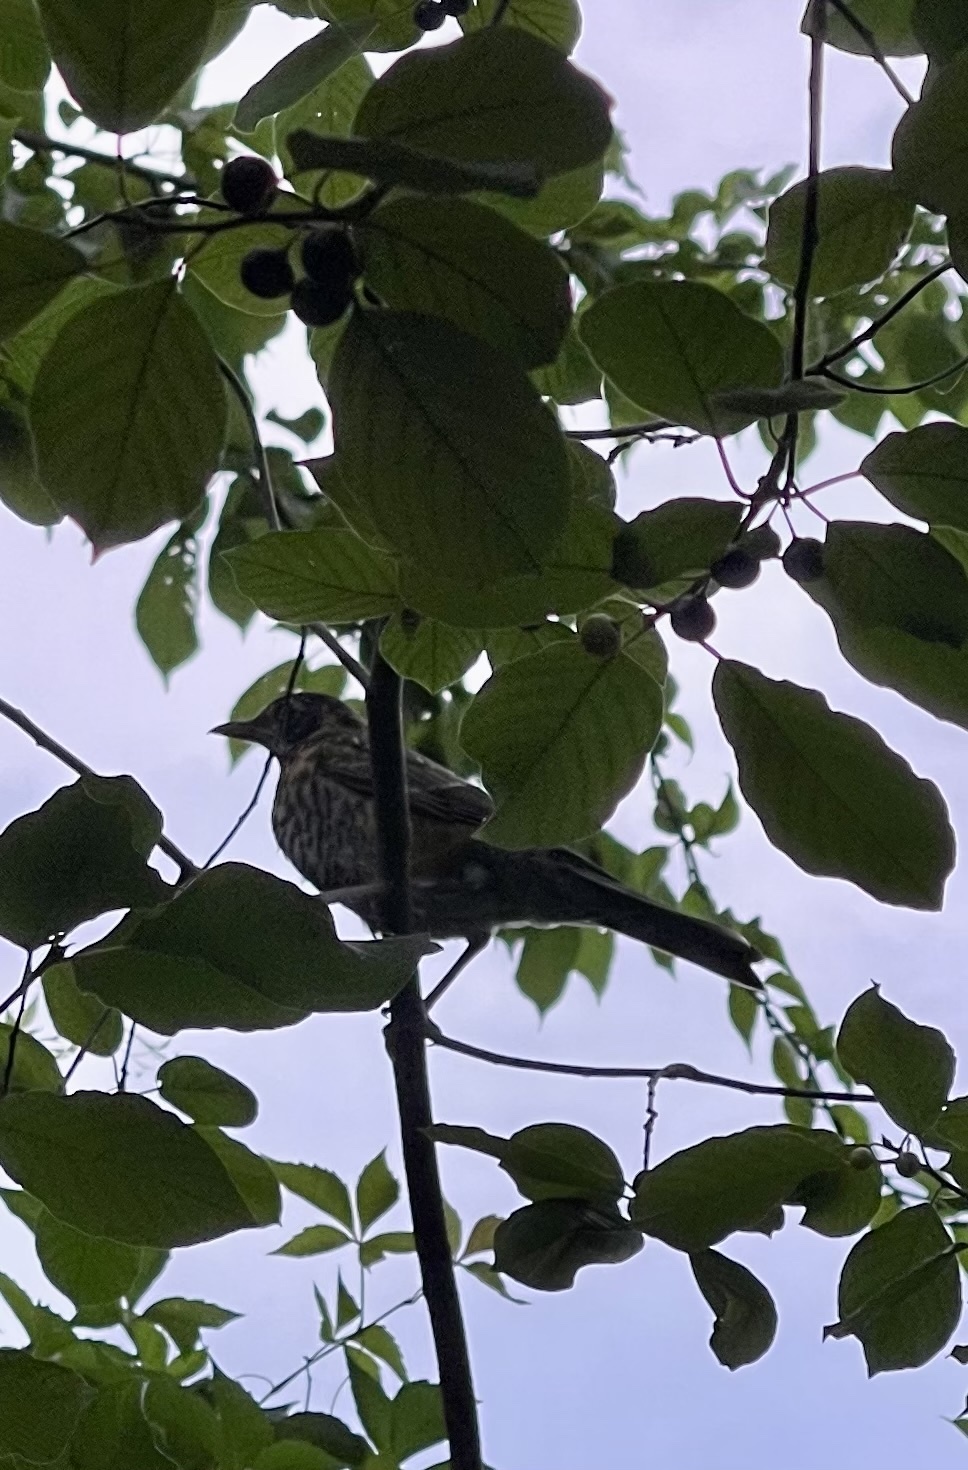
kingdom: Animalia
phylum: Chordata
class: Aves
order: Passeriformes
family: Turdidae
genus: Turdus
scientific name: Turdus migratorius
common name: American robin
